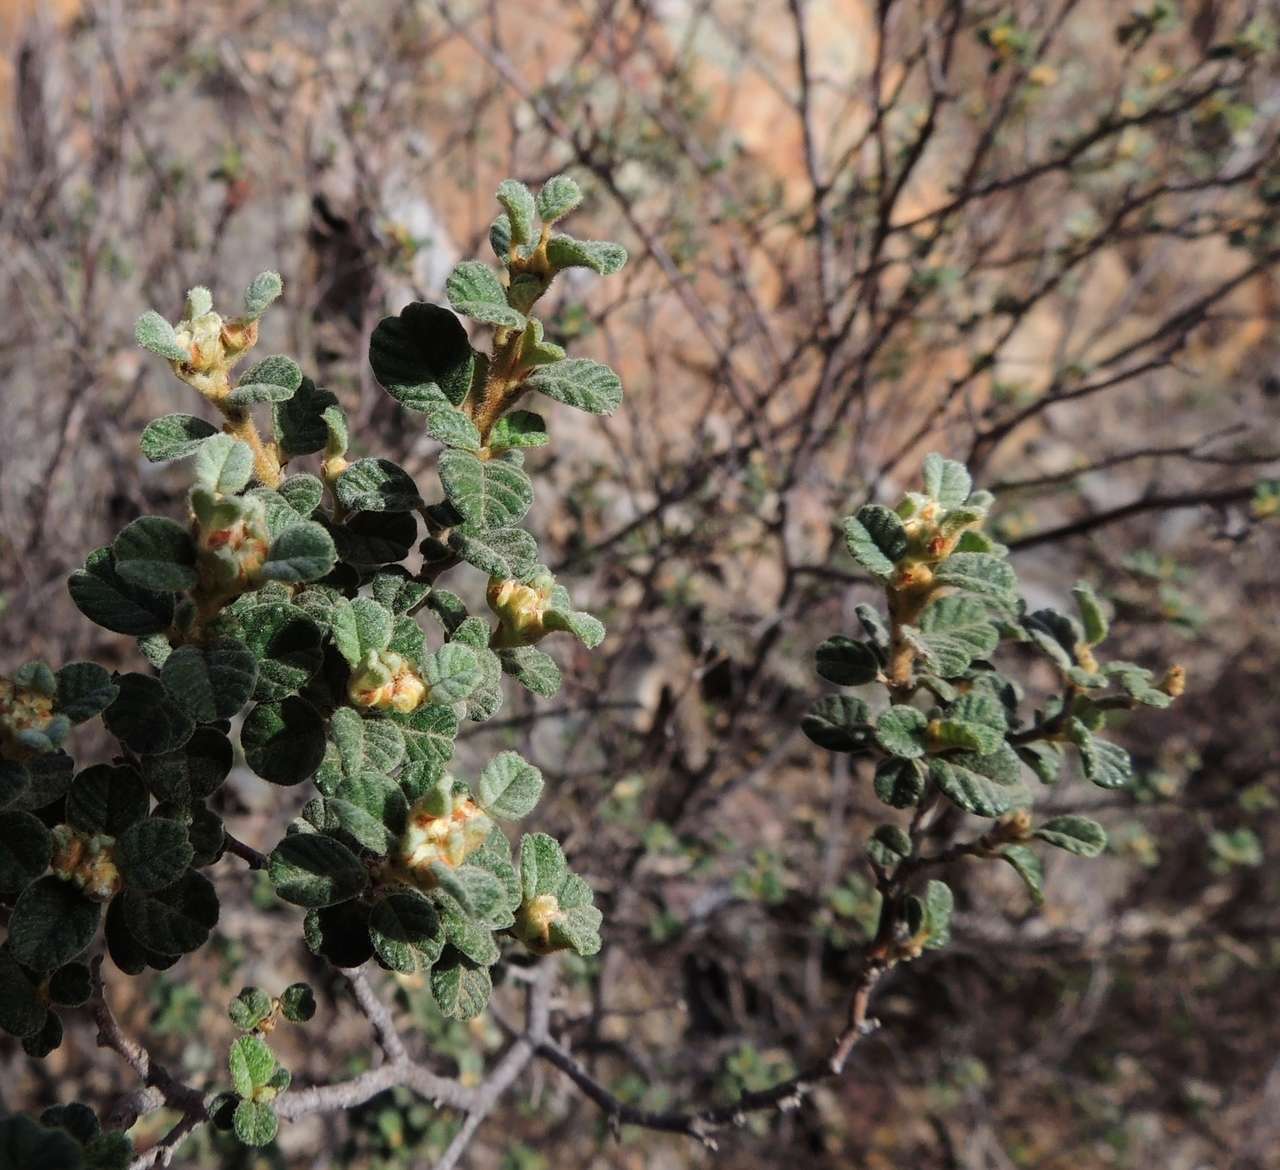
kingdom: Plantae
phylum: Tracheophyta
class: Magnoliopsida
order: Rosales
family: Rhamnaceae
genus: Spyridium
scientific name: Spyridium parvifolium
